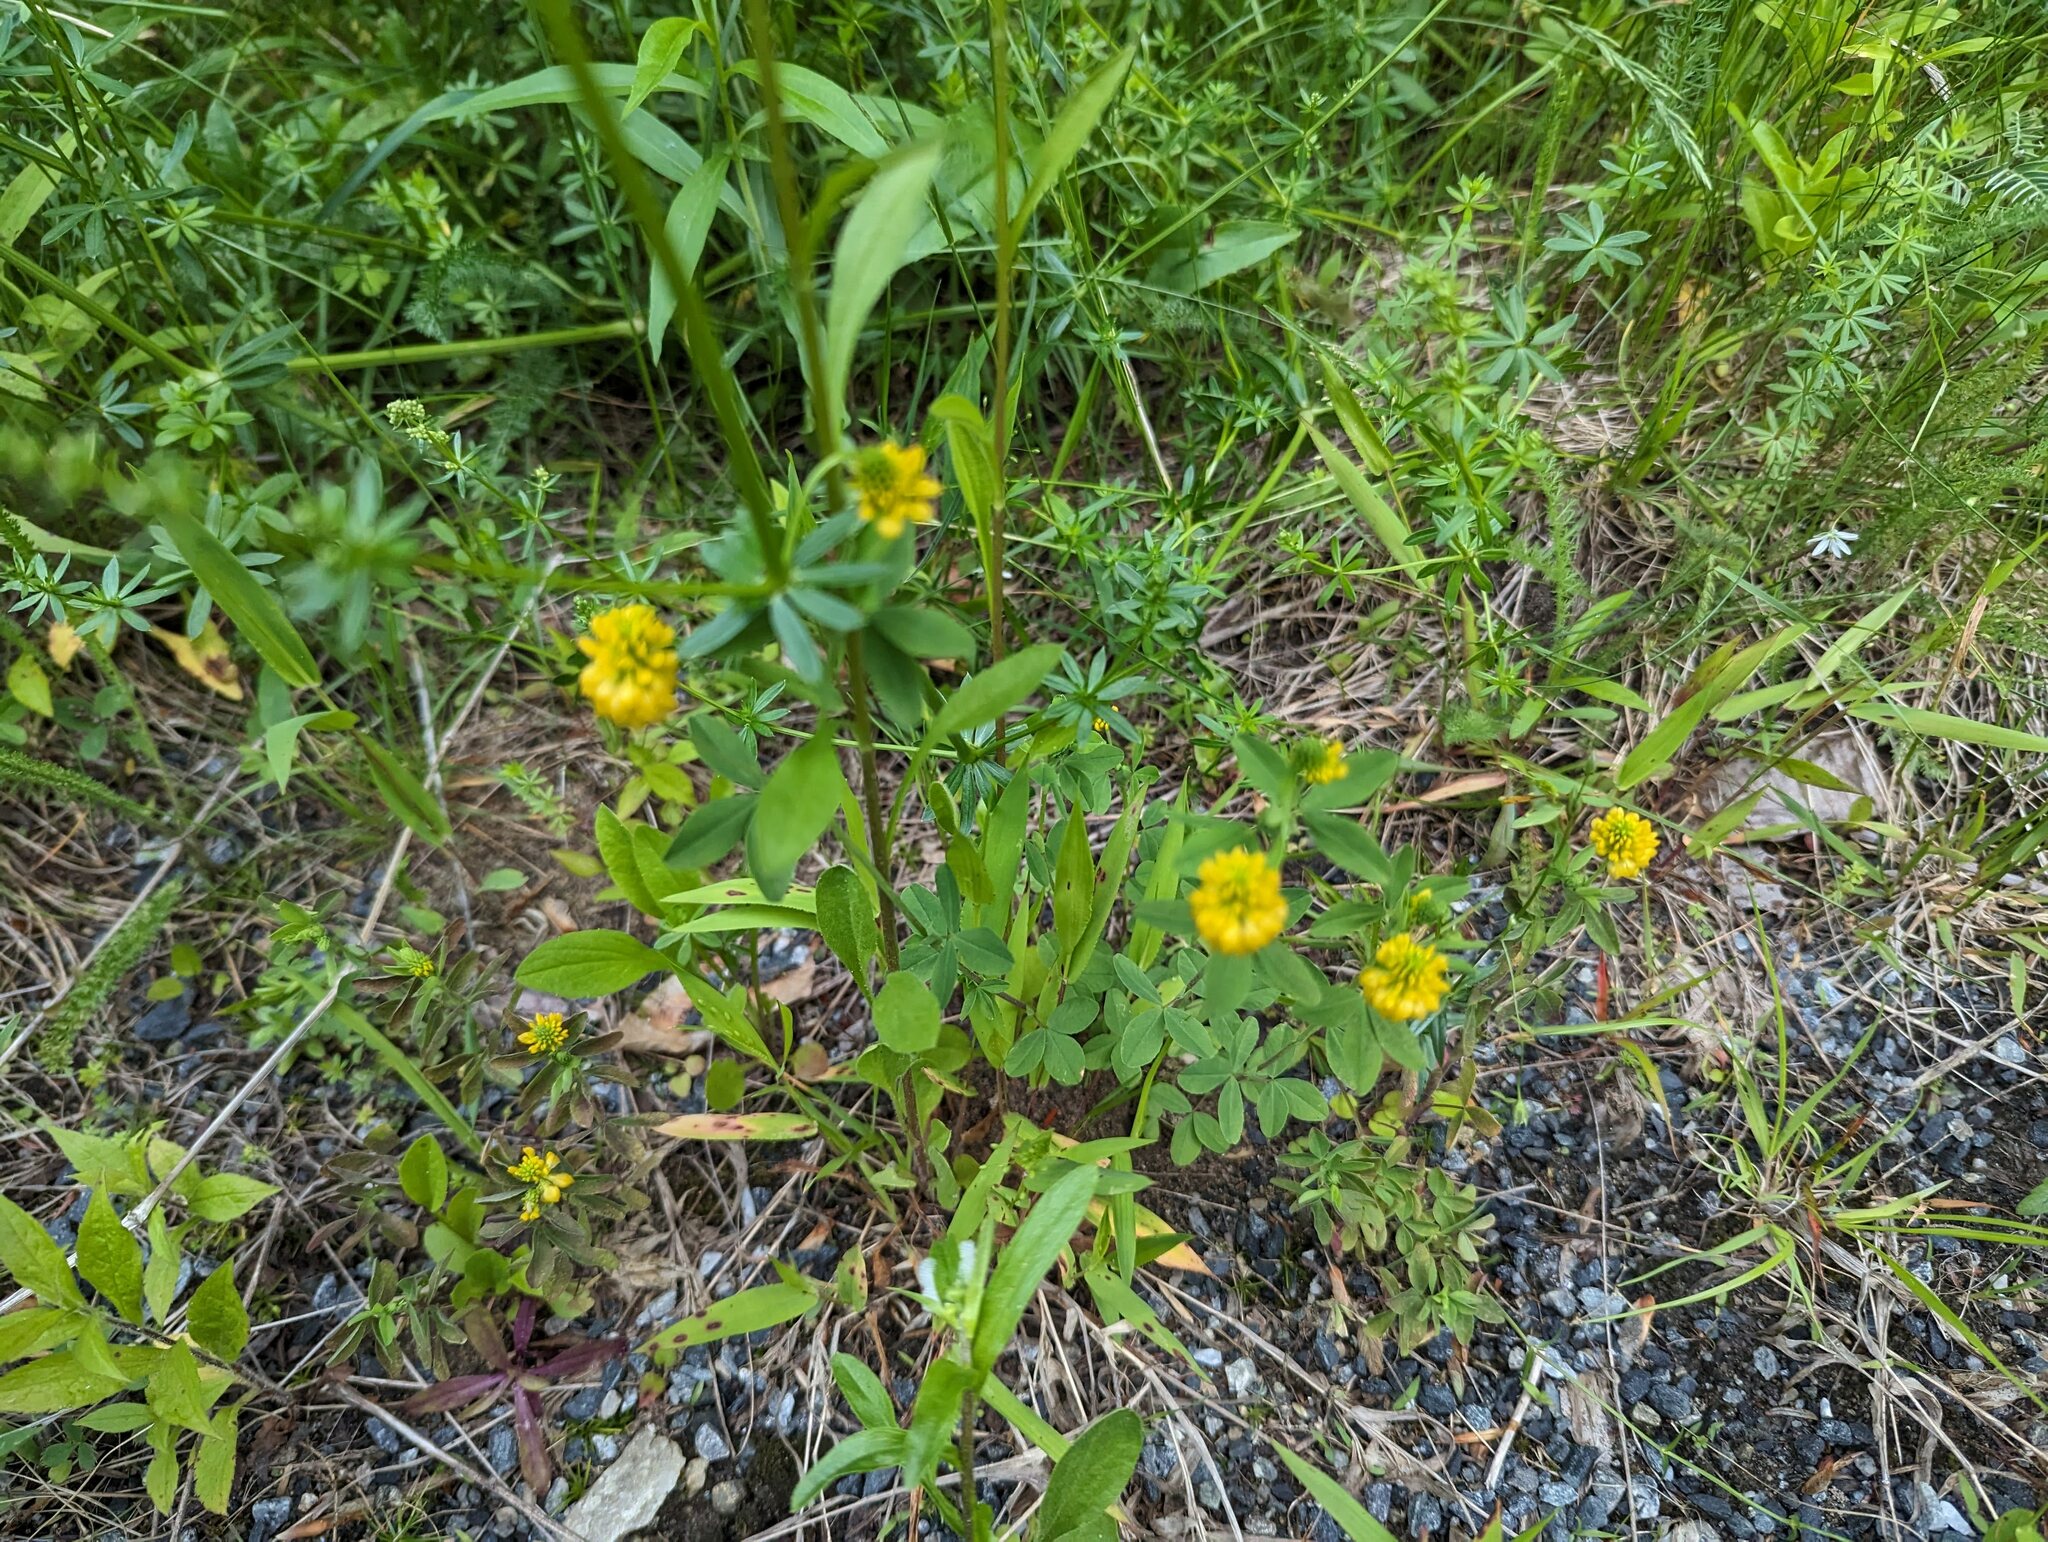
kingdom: Plantae
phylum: Tracheophyta
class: Magnoliopsida
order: Fabales
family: Fabaceae
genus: Trifolium
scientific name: Trifolium aureum
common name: Golden clover
